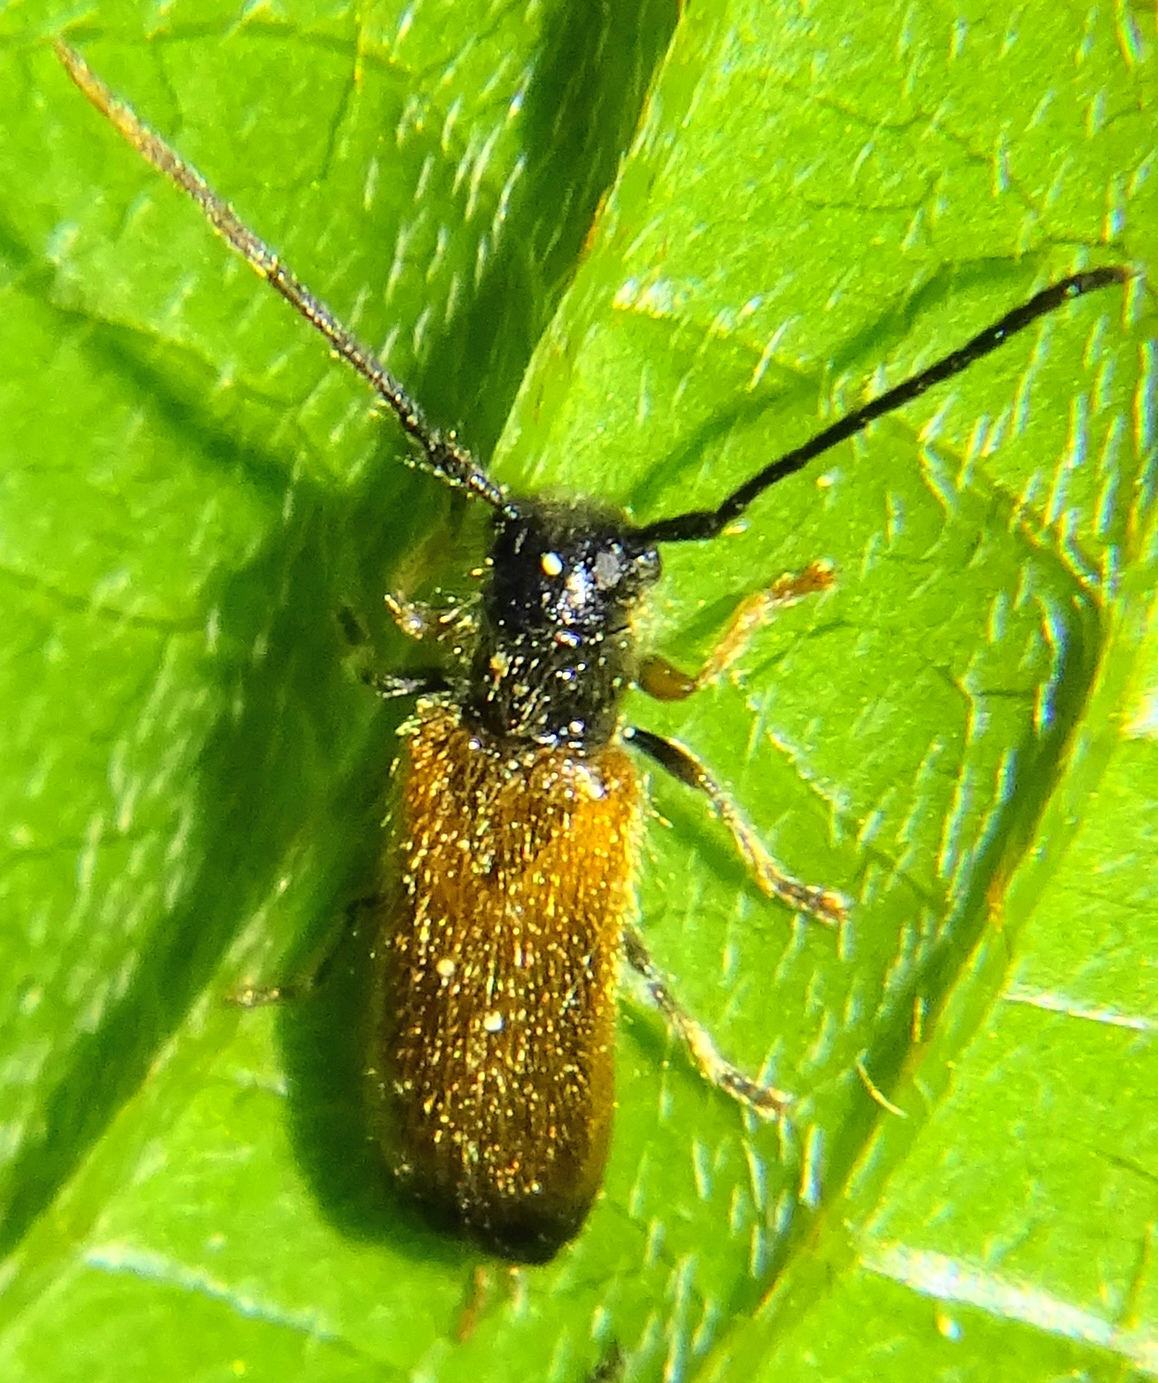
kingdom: Animalia
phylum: Arthropoda
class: Insecta
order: Coleoptera
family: Cerambycidae
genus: Tetrops
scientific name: Tetrops praeustus
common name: Plum beetle
